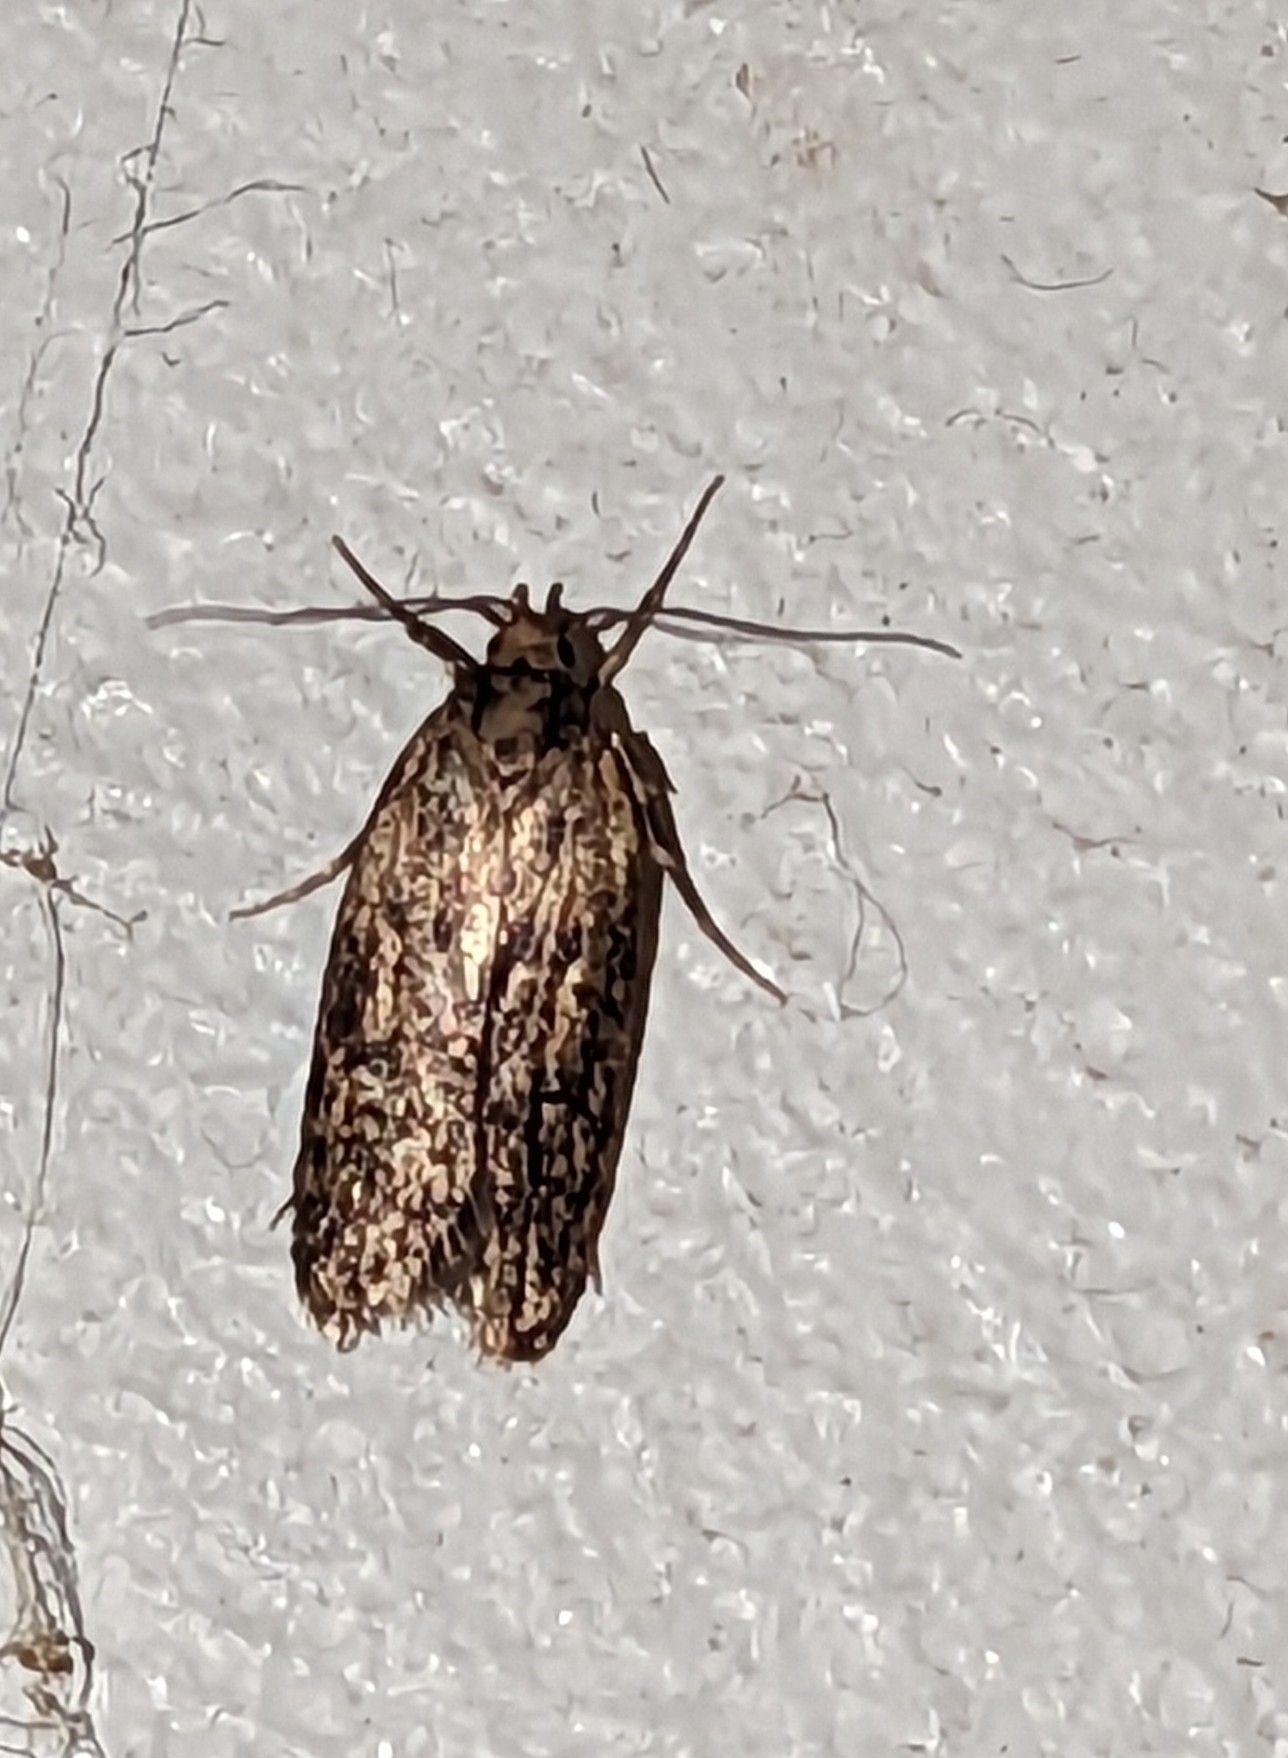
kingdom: Animalia
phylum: Arthropoda
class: Insecta
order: Lepidoptera
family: Oecophoridae
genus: Hofmannophila
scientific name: Hofmannophila pseudospretella
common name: Brown house moth
